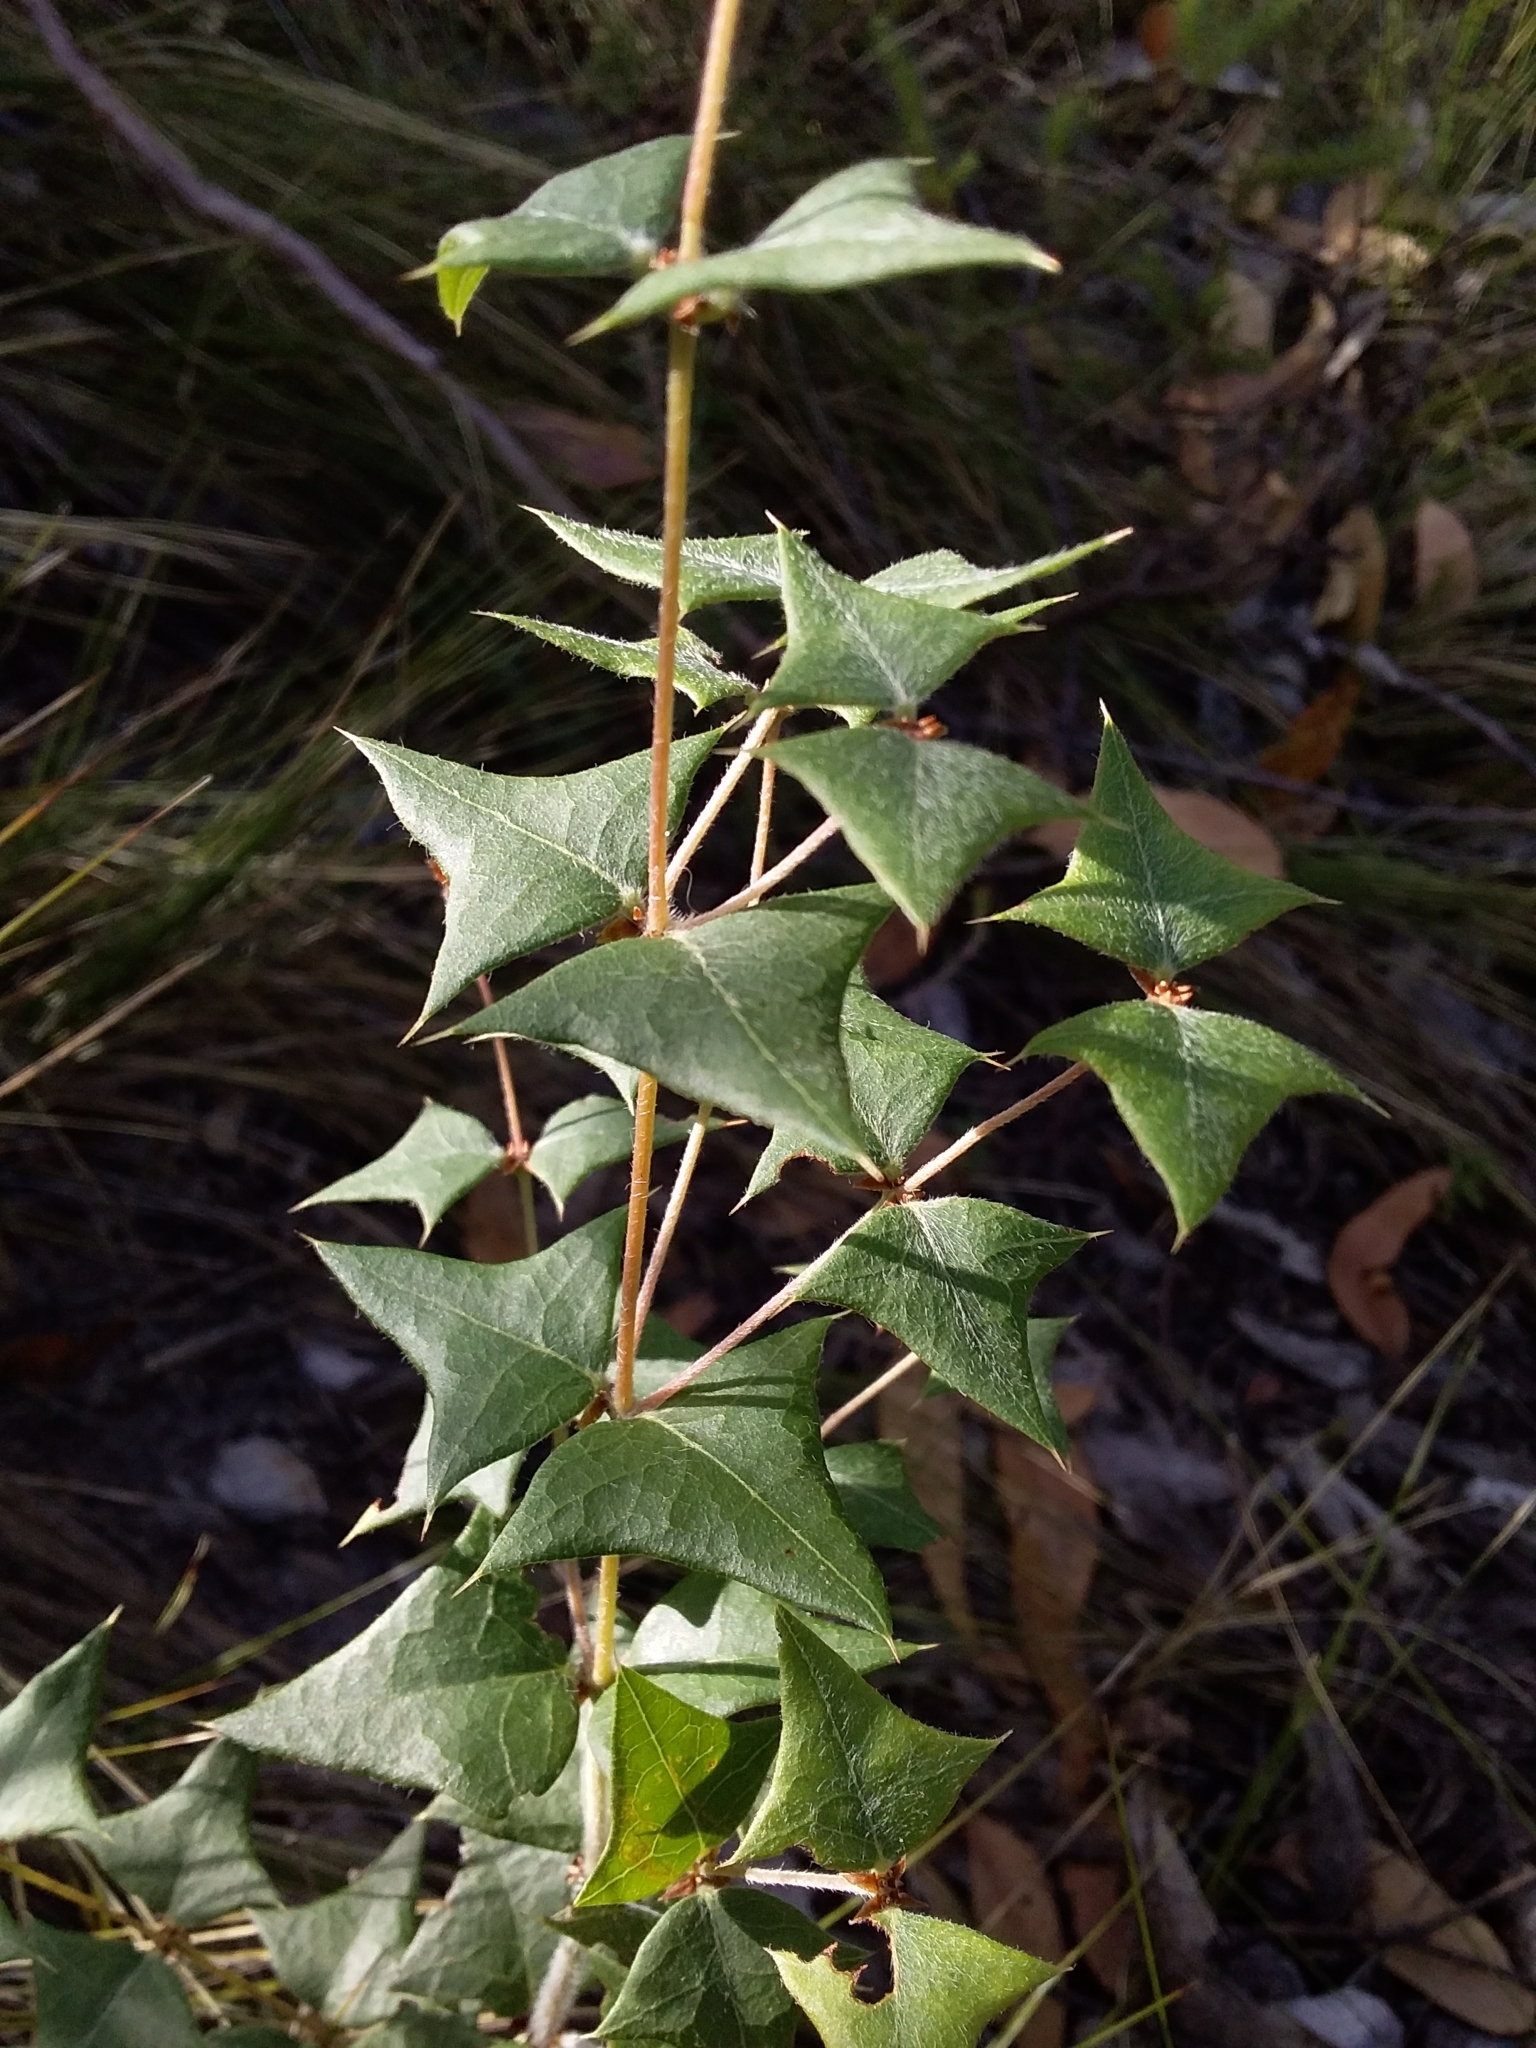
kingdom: Plantae
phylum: Tracheophyta
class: Magnoliopsida
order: Fabales
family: Fabaceae
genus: Platylobium
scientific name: Platylobium obtusangulum
